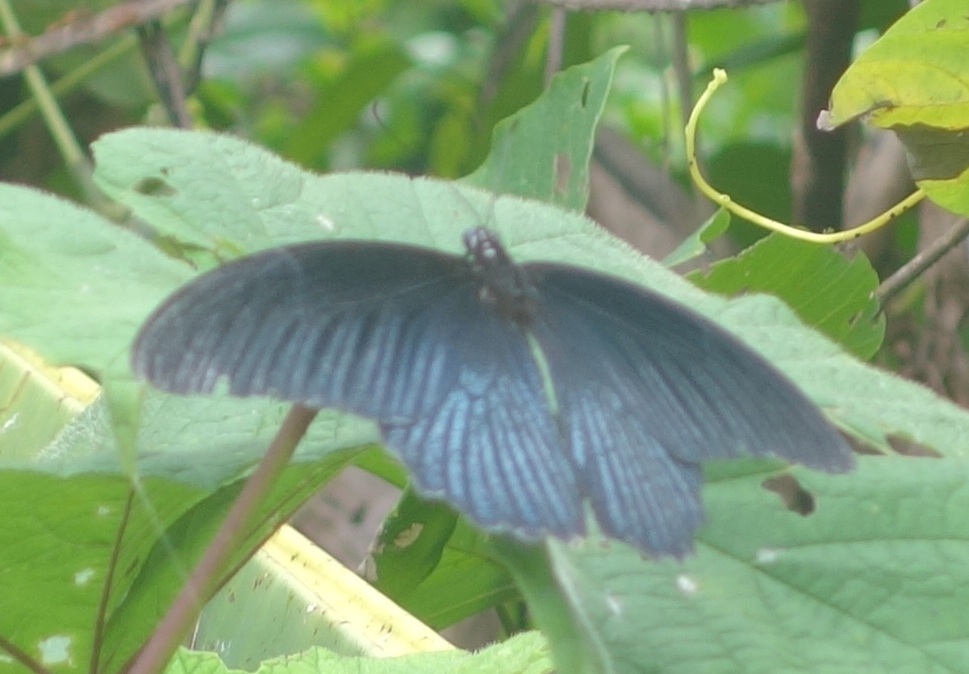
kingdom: Animalia
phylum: Arthropoda
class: Insecta
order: Lepidoptera
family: Papilionidae
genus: Papilio
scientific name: Papilio memnon
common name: Great mormon
